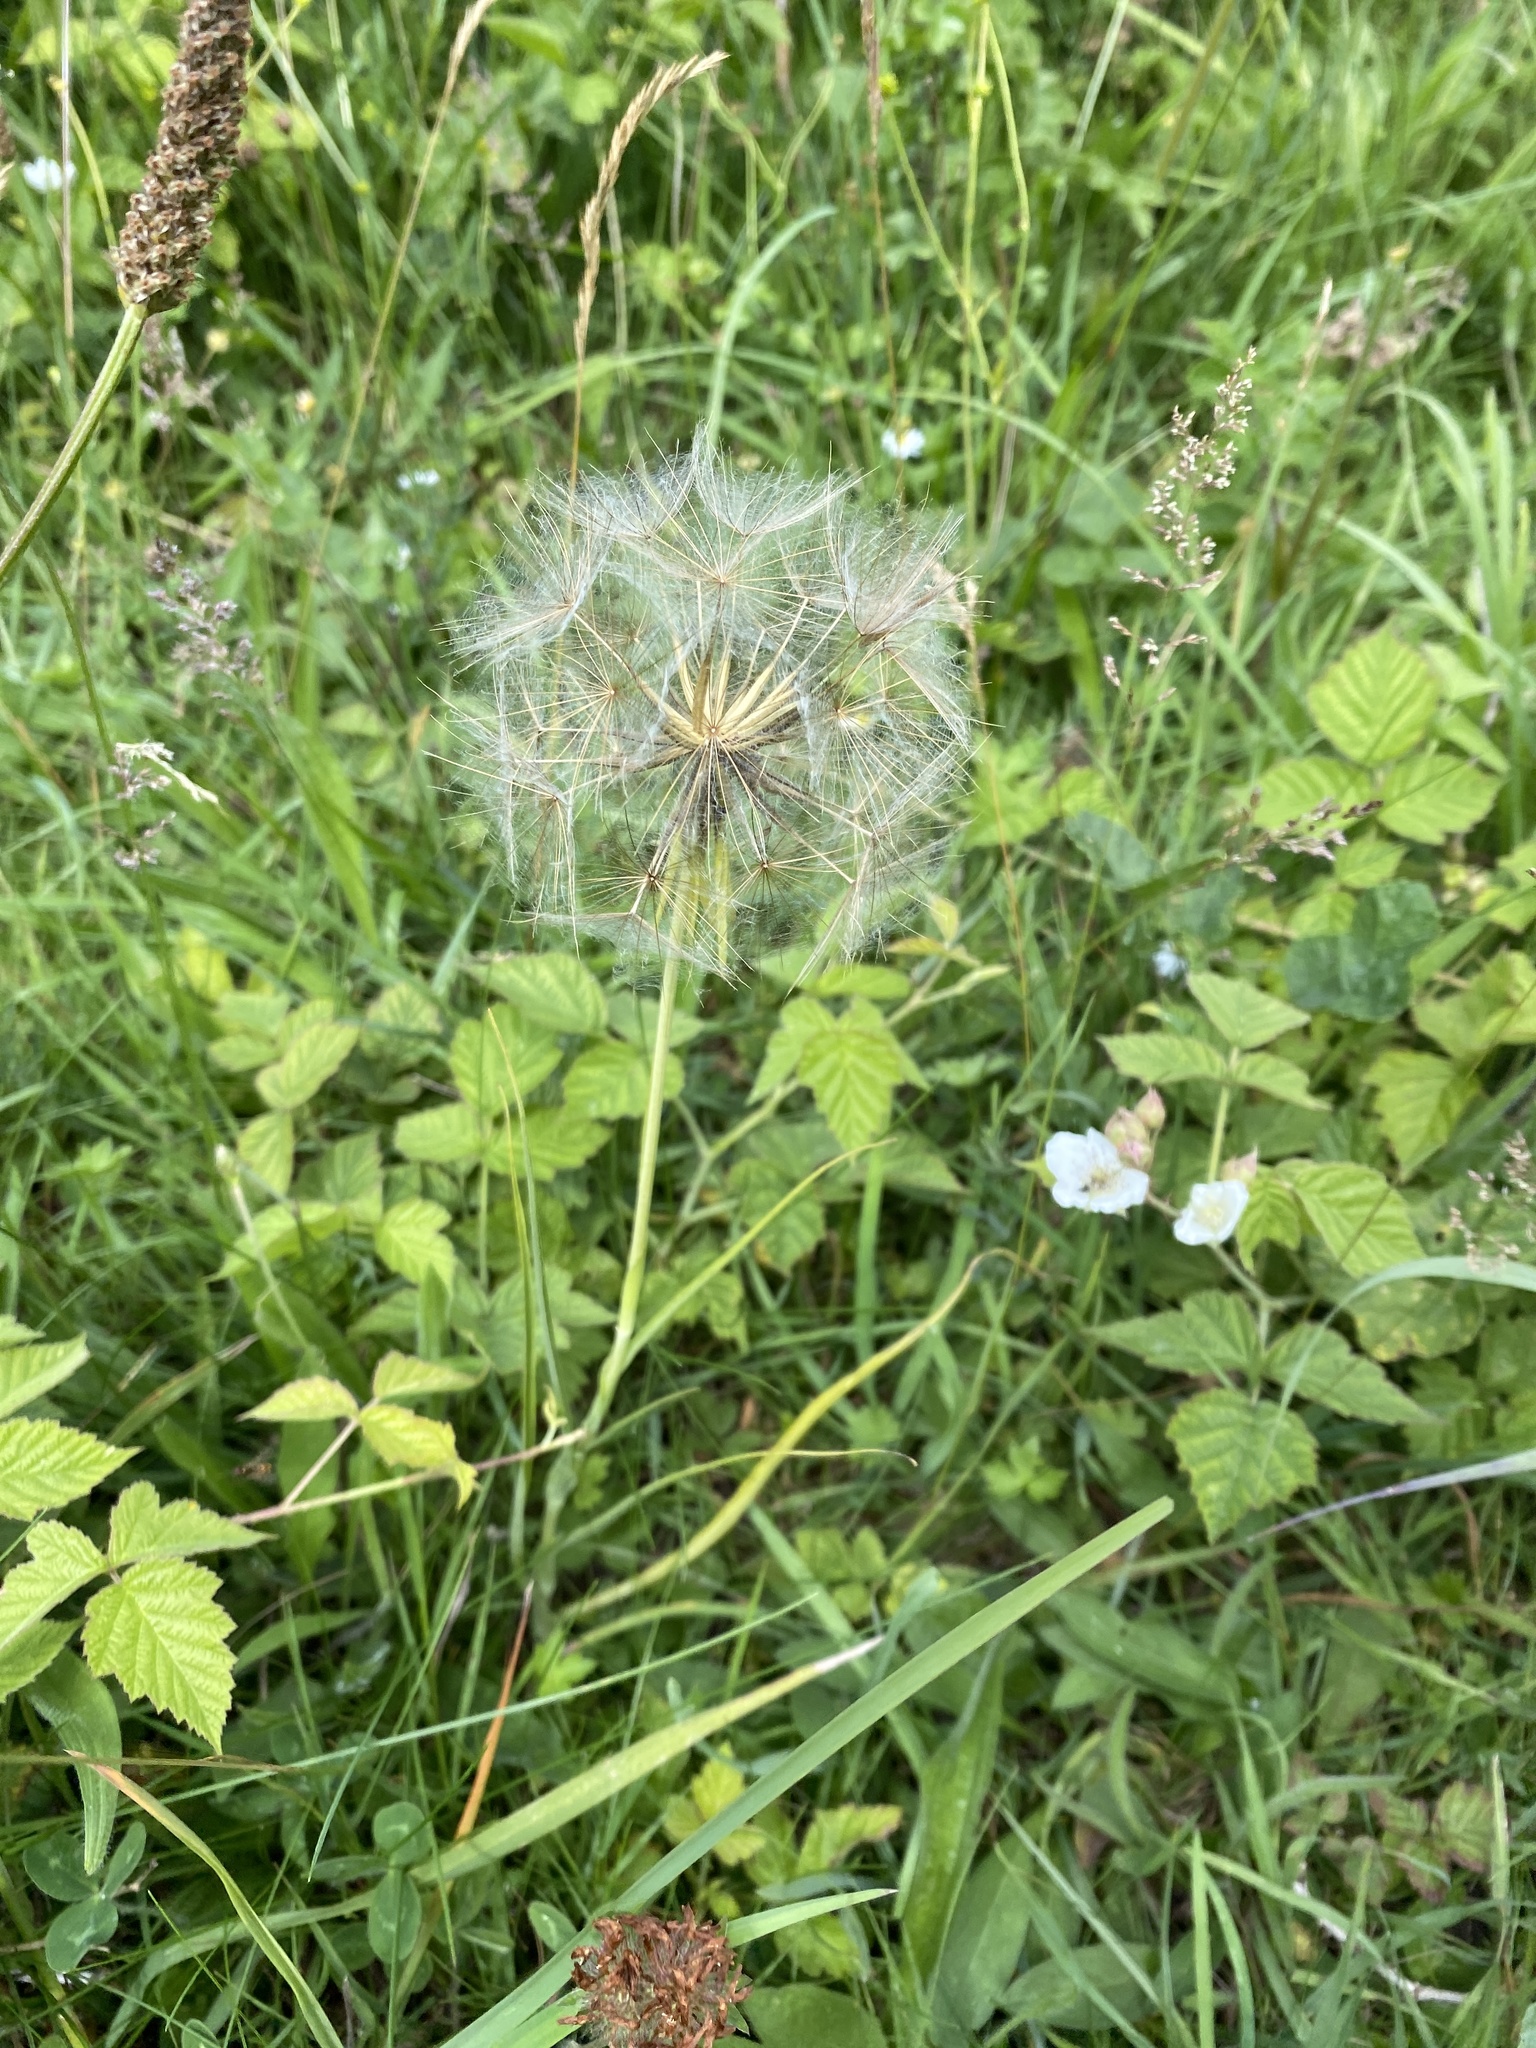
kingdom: Plantae
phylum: Tracheophyta
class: Magnoliopsida
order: Asterales
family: Asteraceae
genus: Tragopogon
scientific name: Tragopogon pratensis
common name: Goat's-beard
